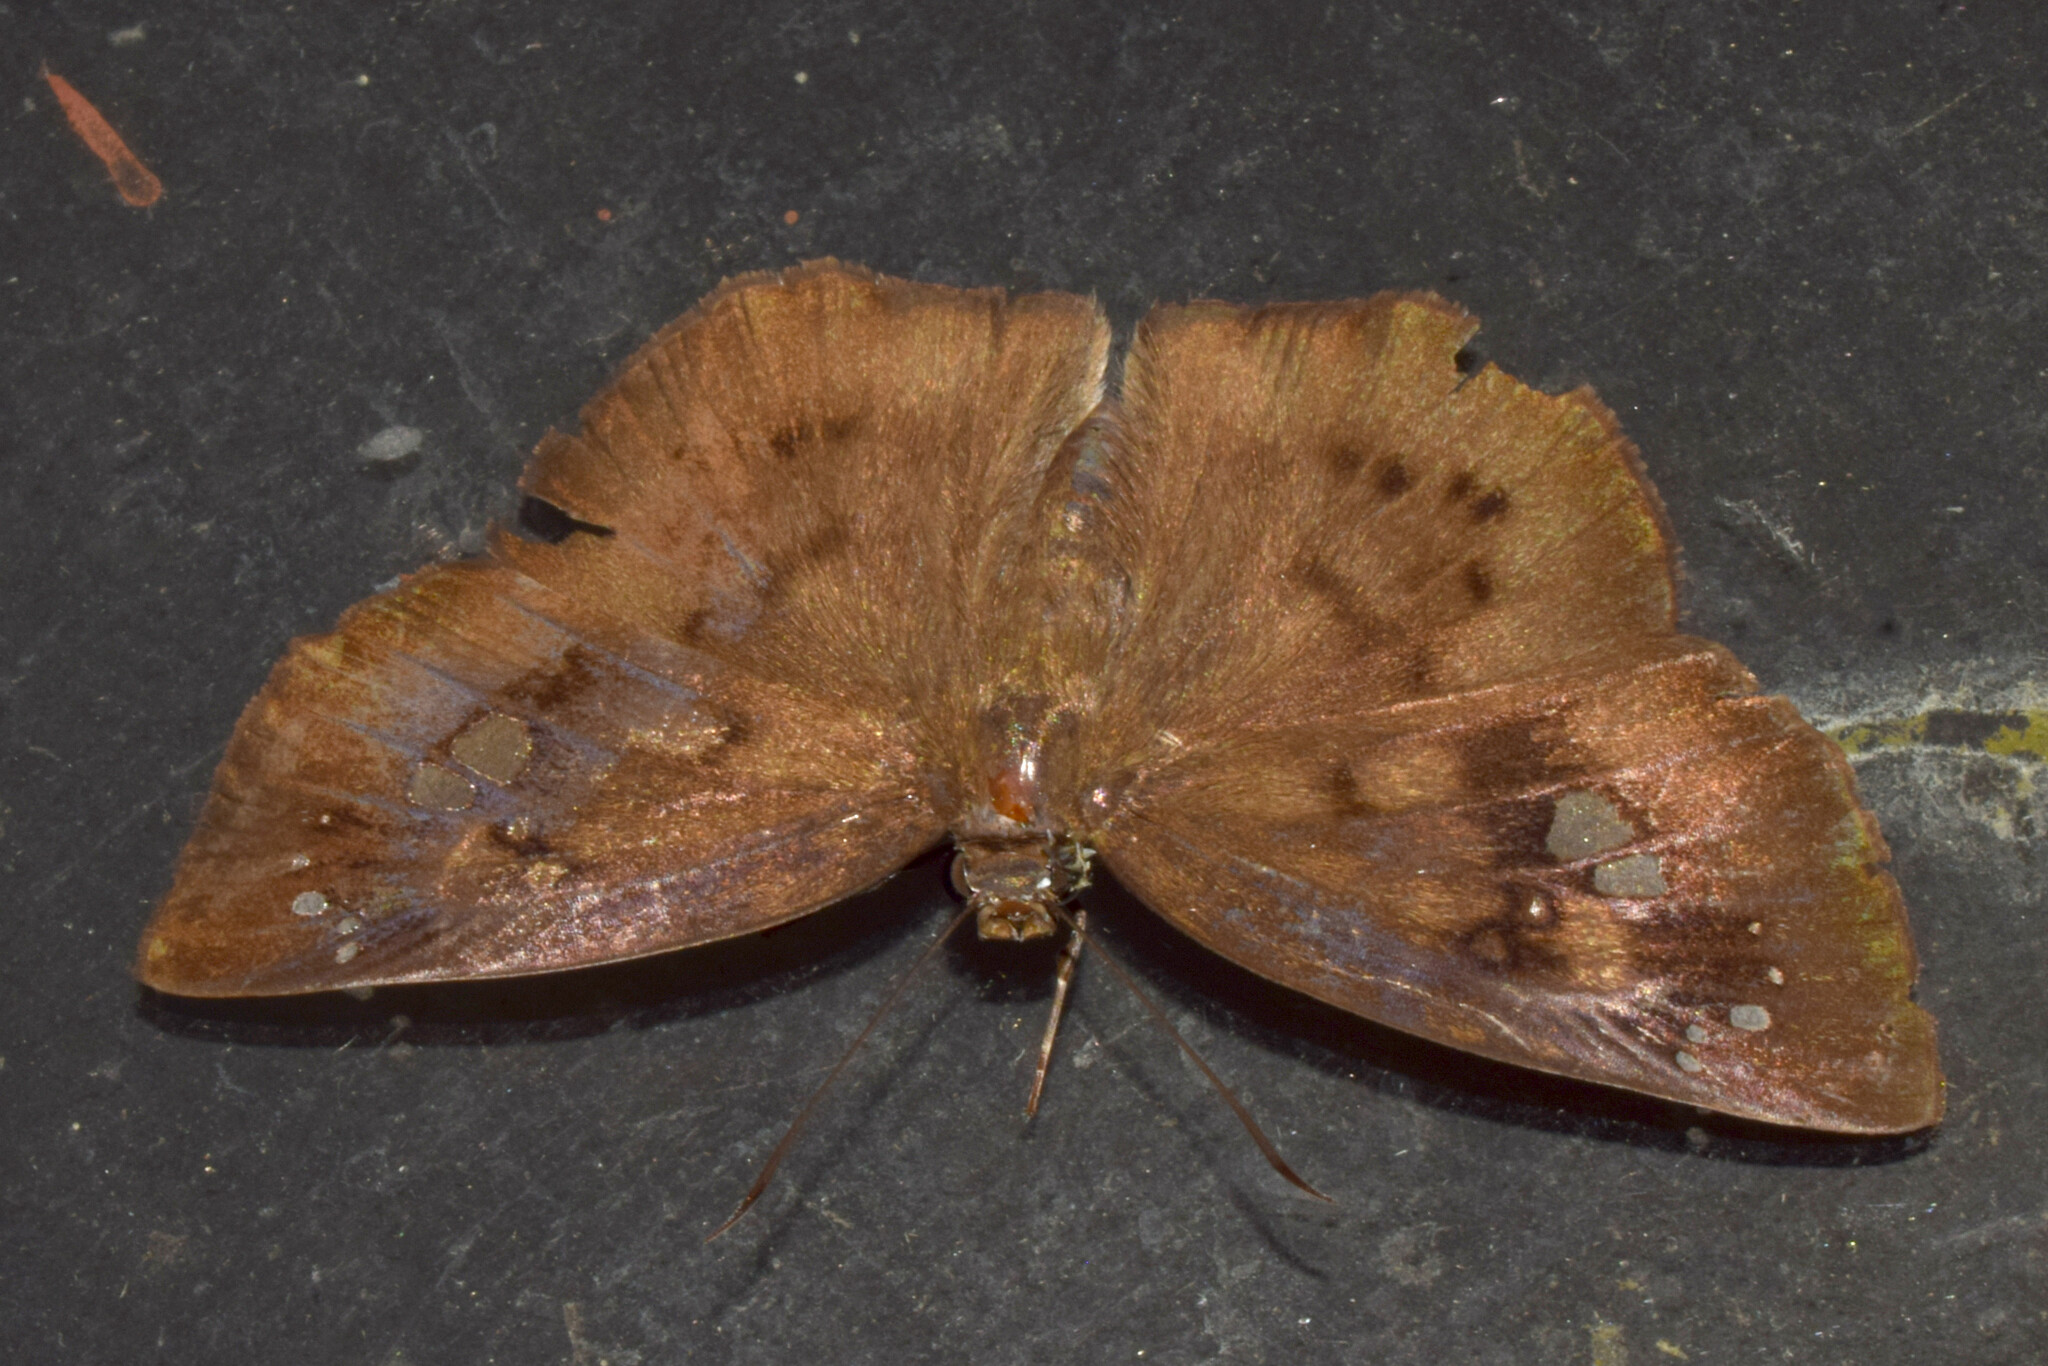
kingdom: Animalia
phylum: Arthropoda
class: Insecta
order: Lepidoptera
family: Hesperiidae
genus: Tagiades
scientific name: Tagiades japetus
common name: Pied flat
